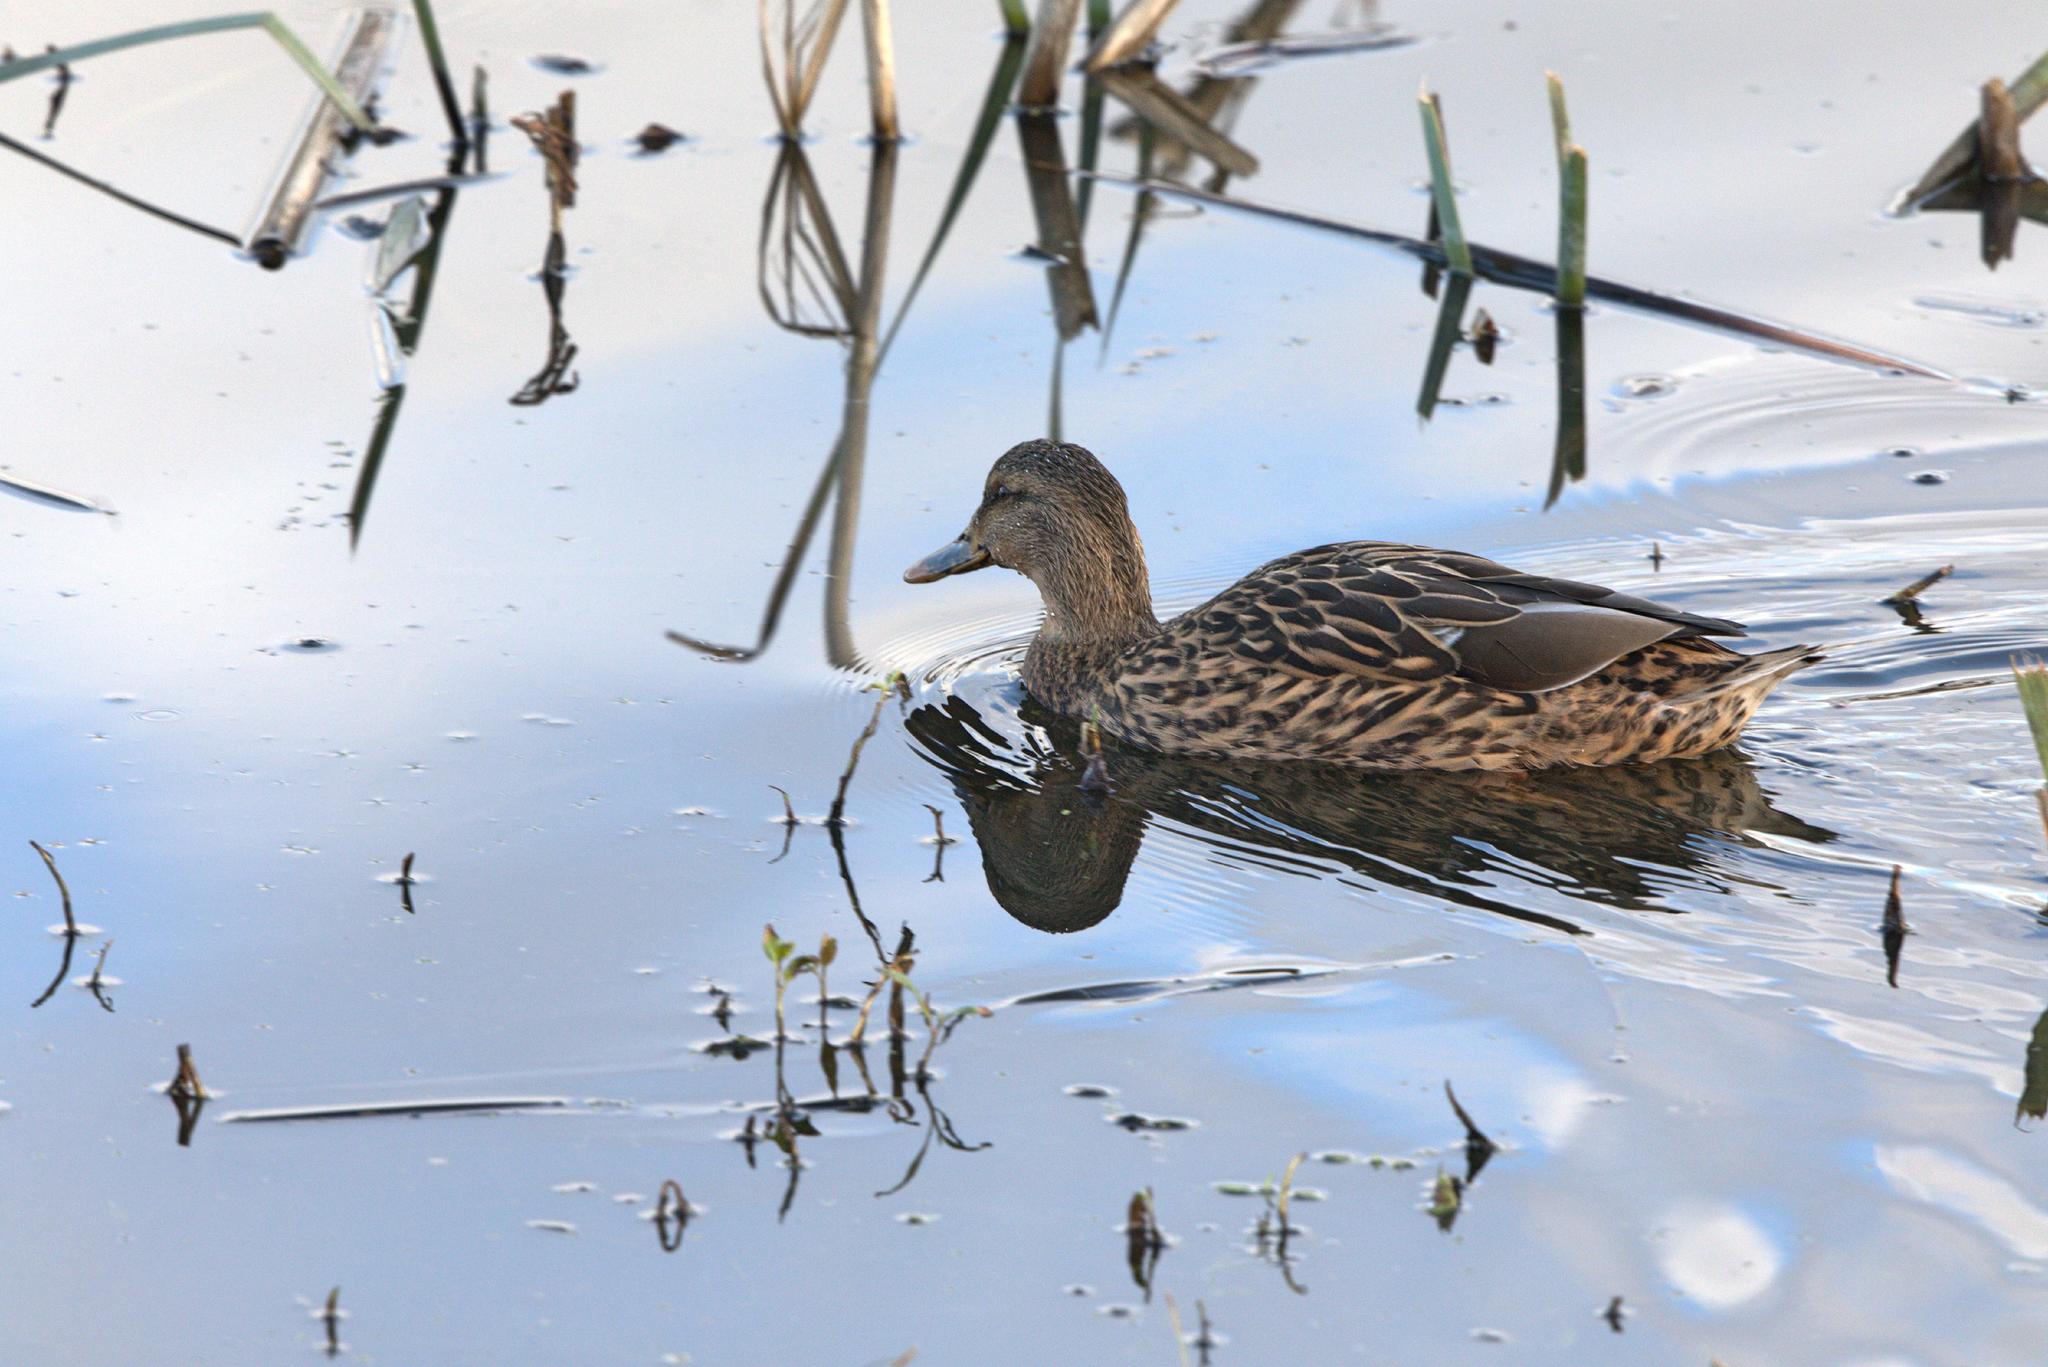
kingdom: Animalia
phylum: Chordata
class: Aves
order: Anseriformes
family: Anatidae
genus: Anas
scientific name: Anas platyrhynchos
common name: Mallard
